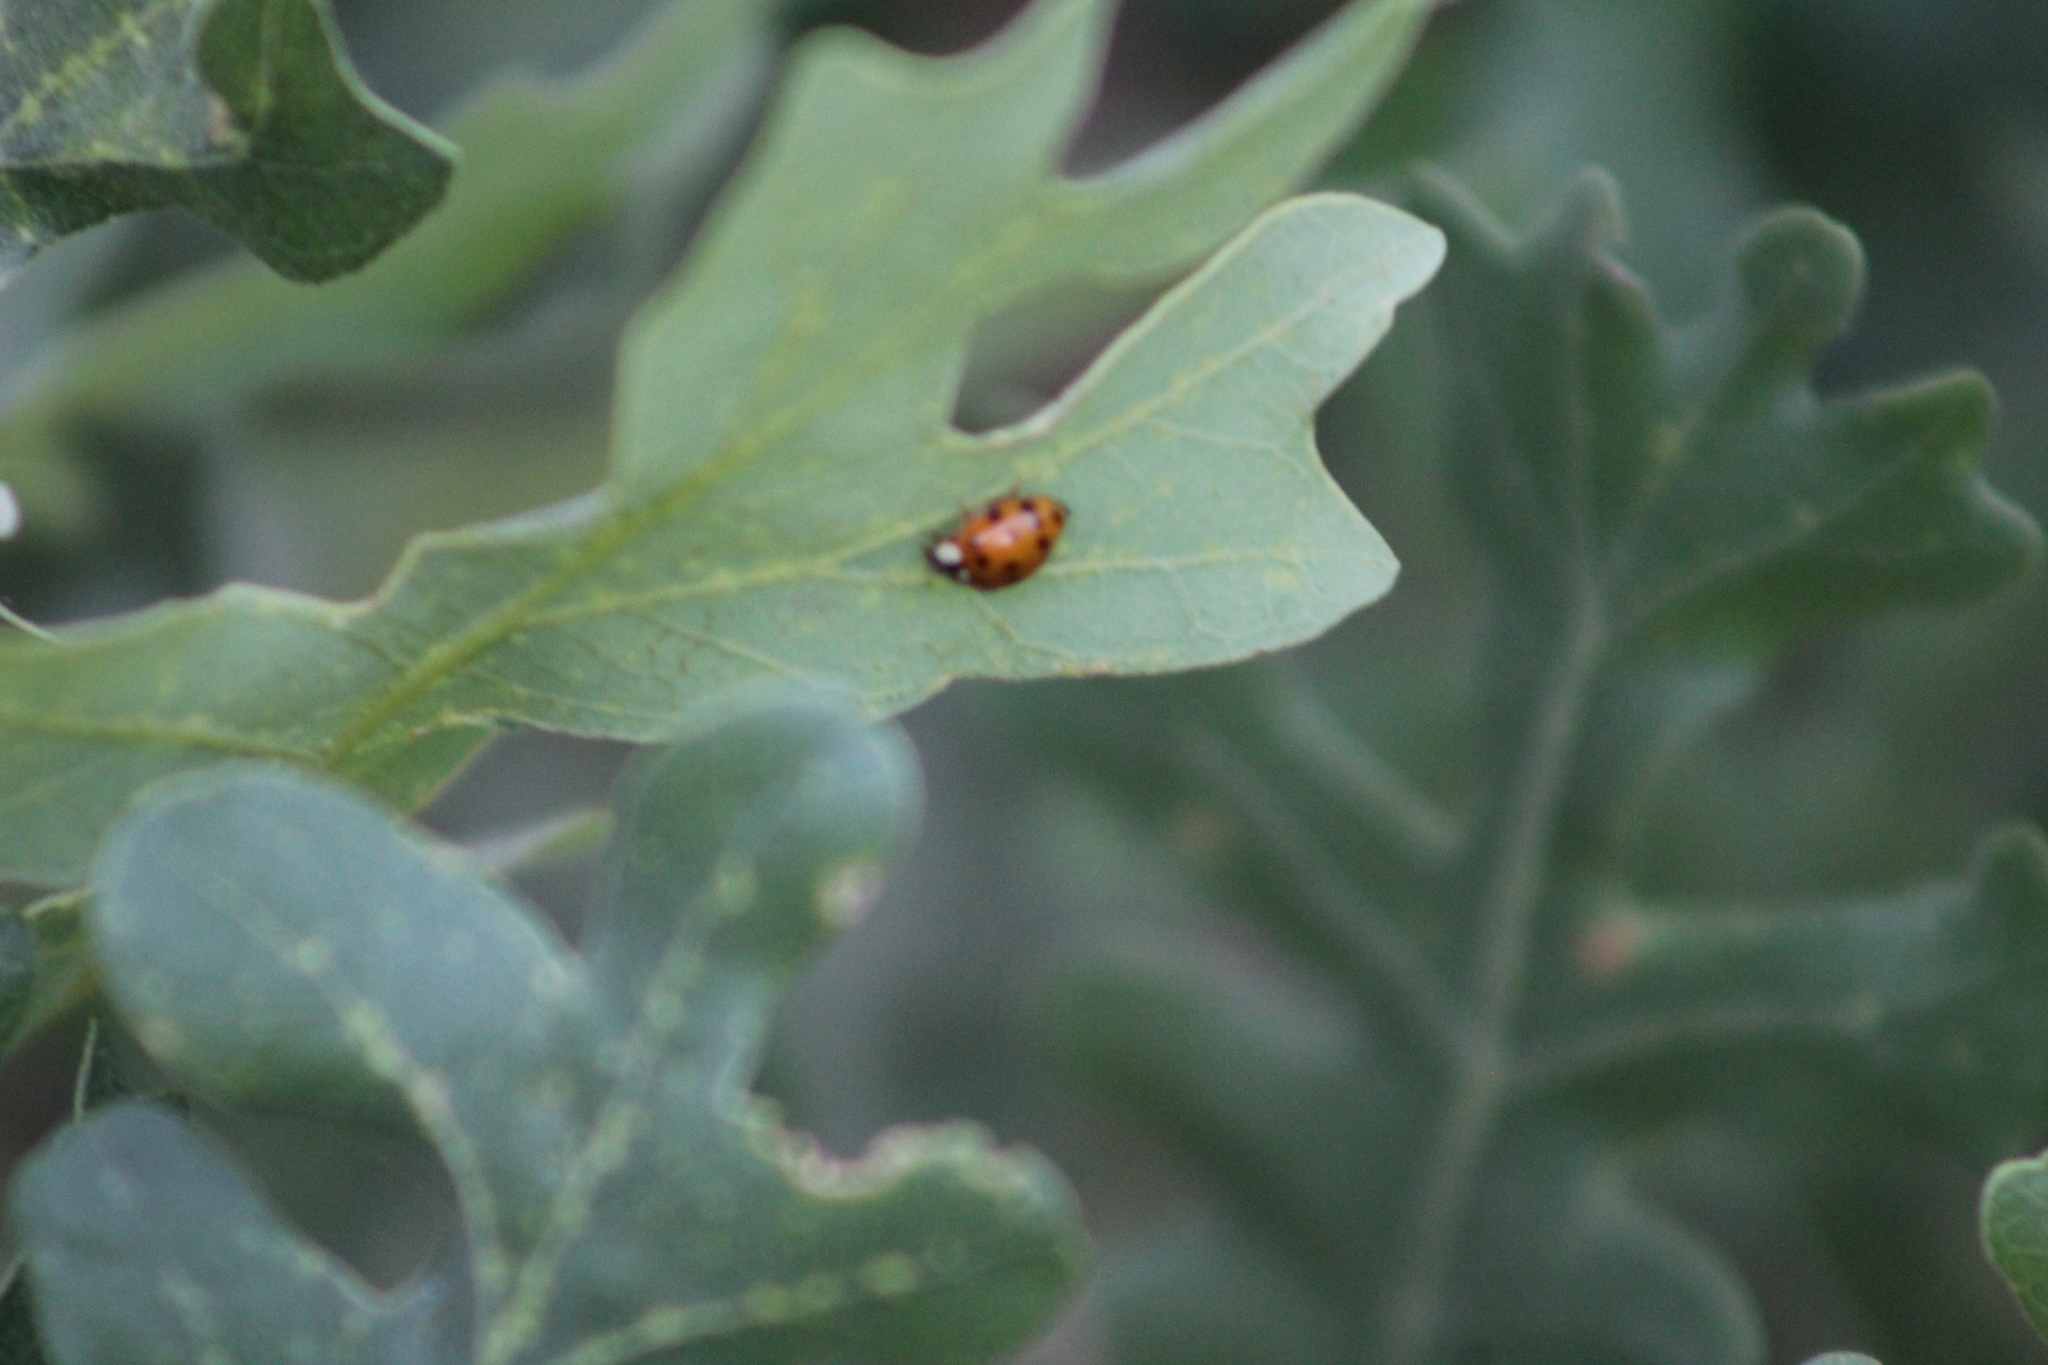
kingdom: Animalia
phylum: Arthropoda
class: Insecta
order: Coleoptera
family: Coccinellidae
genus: Harmonia
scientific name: Harmonia axyridis
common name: Harlequin ladybird
